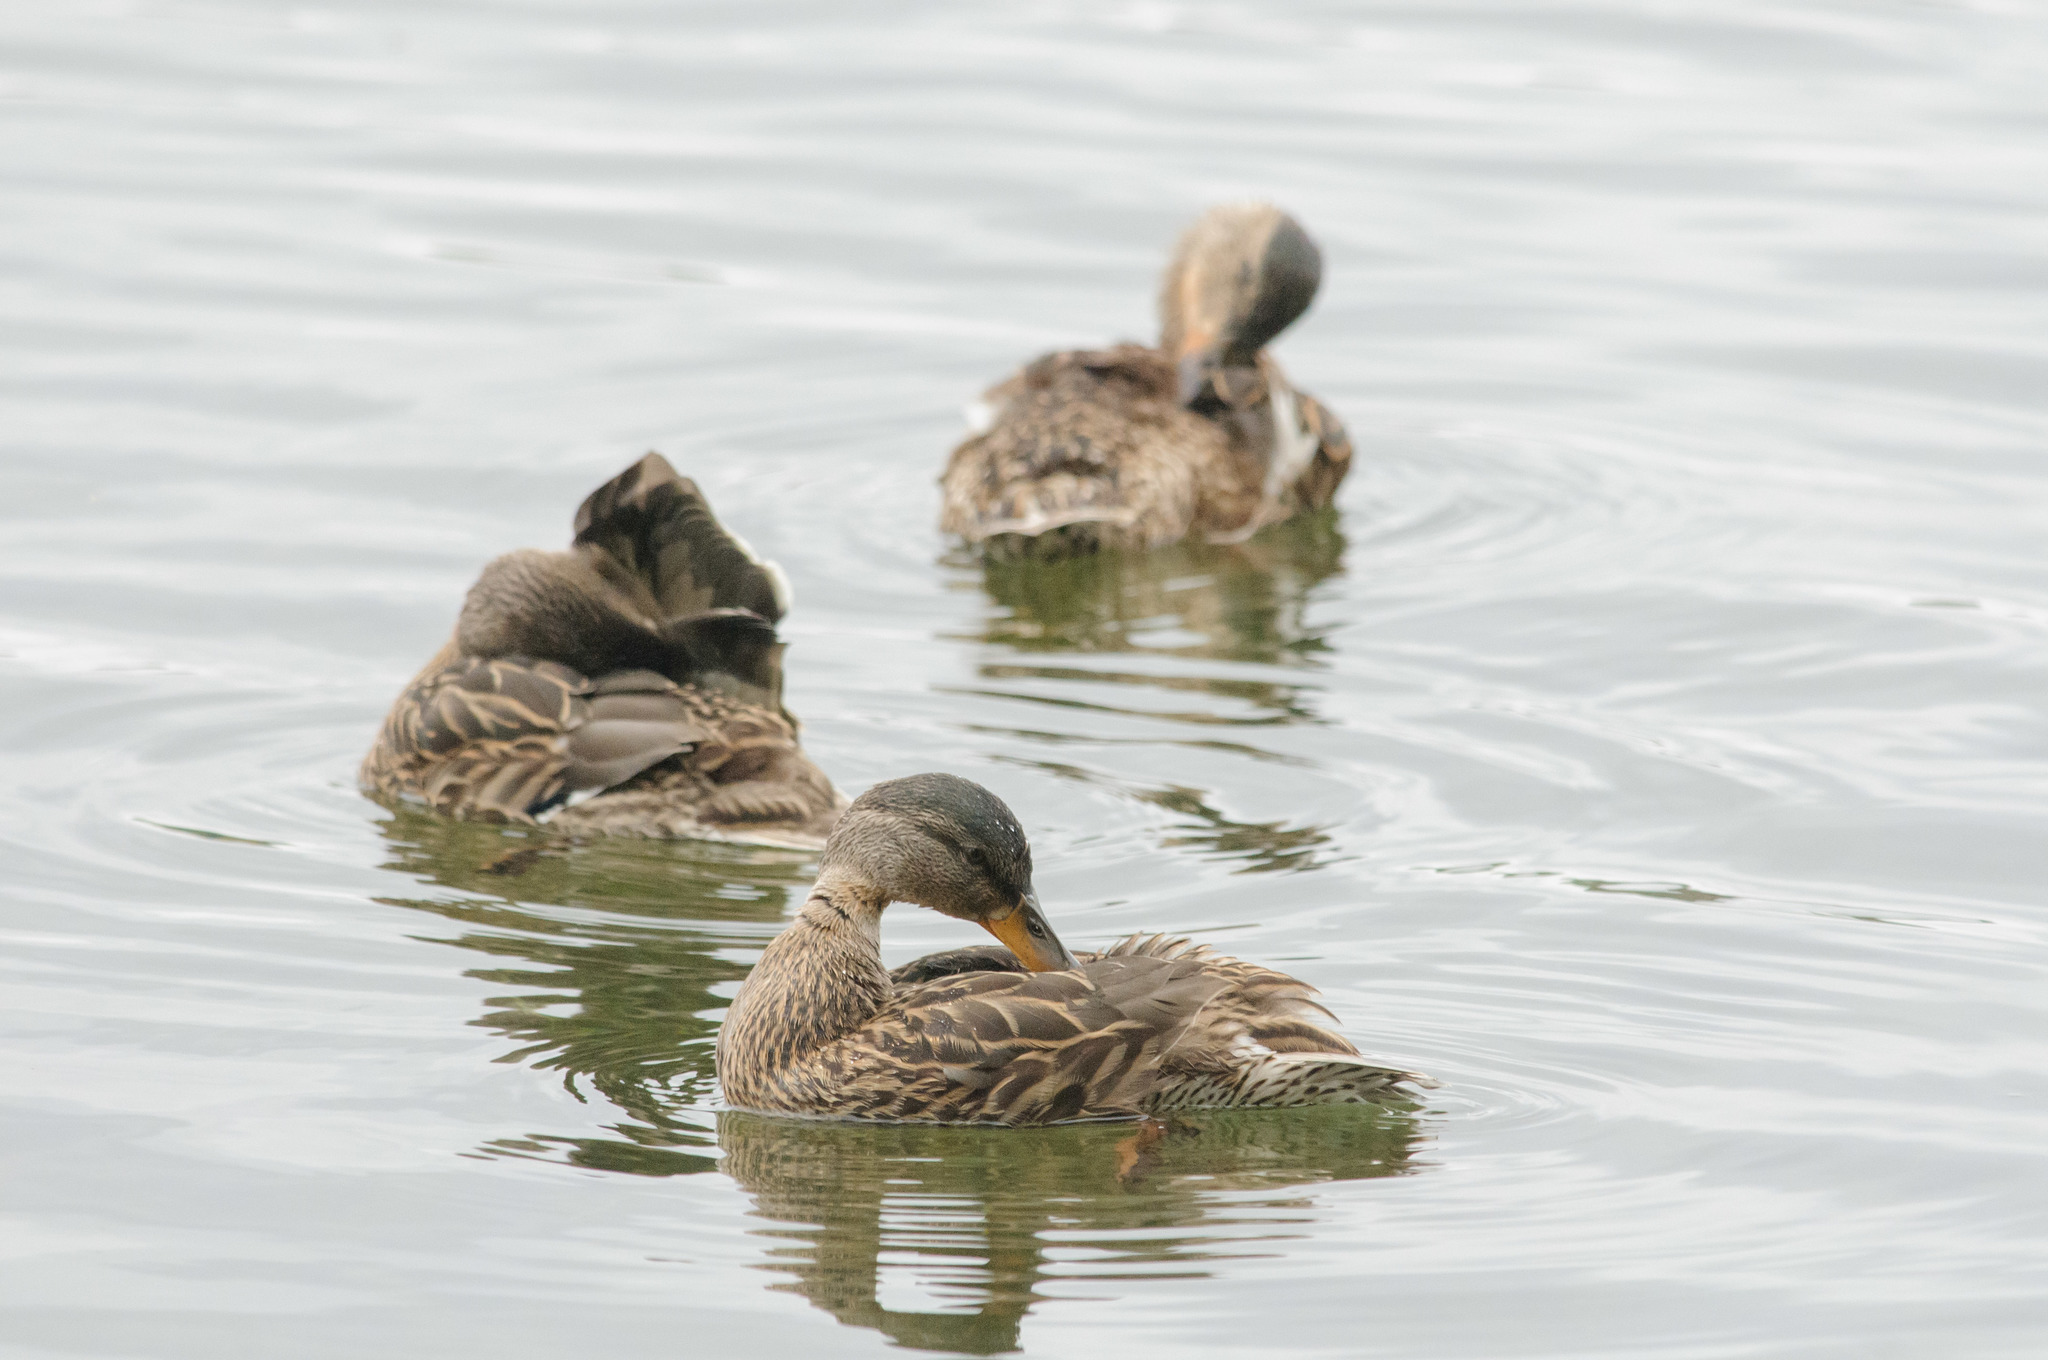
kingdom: Animalia
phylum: Chordata
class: Aves
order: Anseriformes
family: Anatidae
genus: Anas
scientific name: Anas platyrhynchos
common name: Mallard
